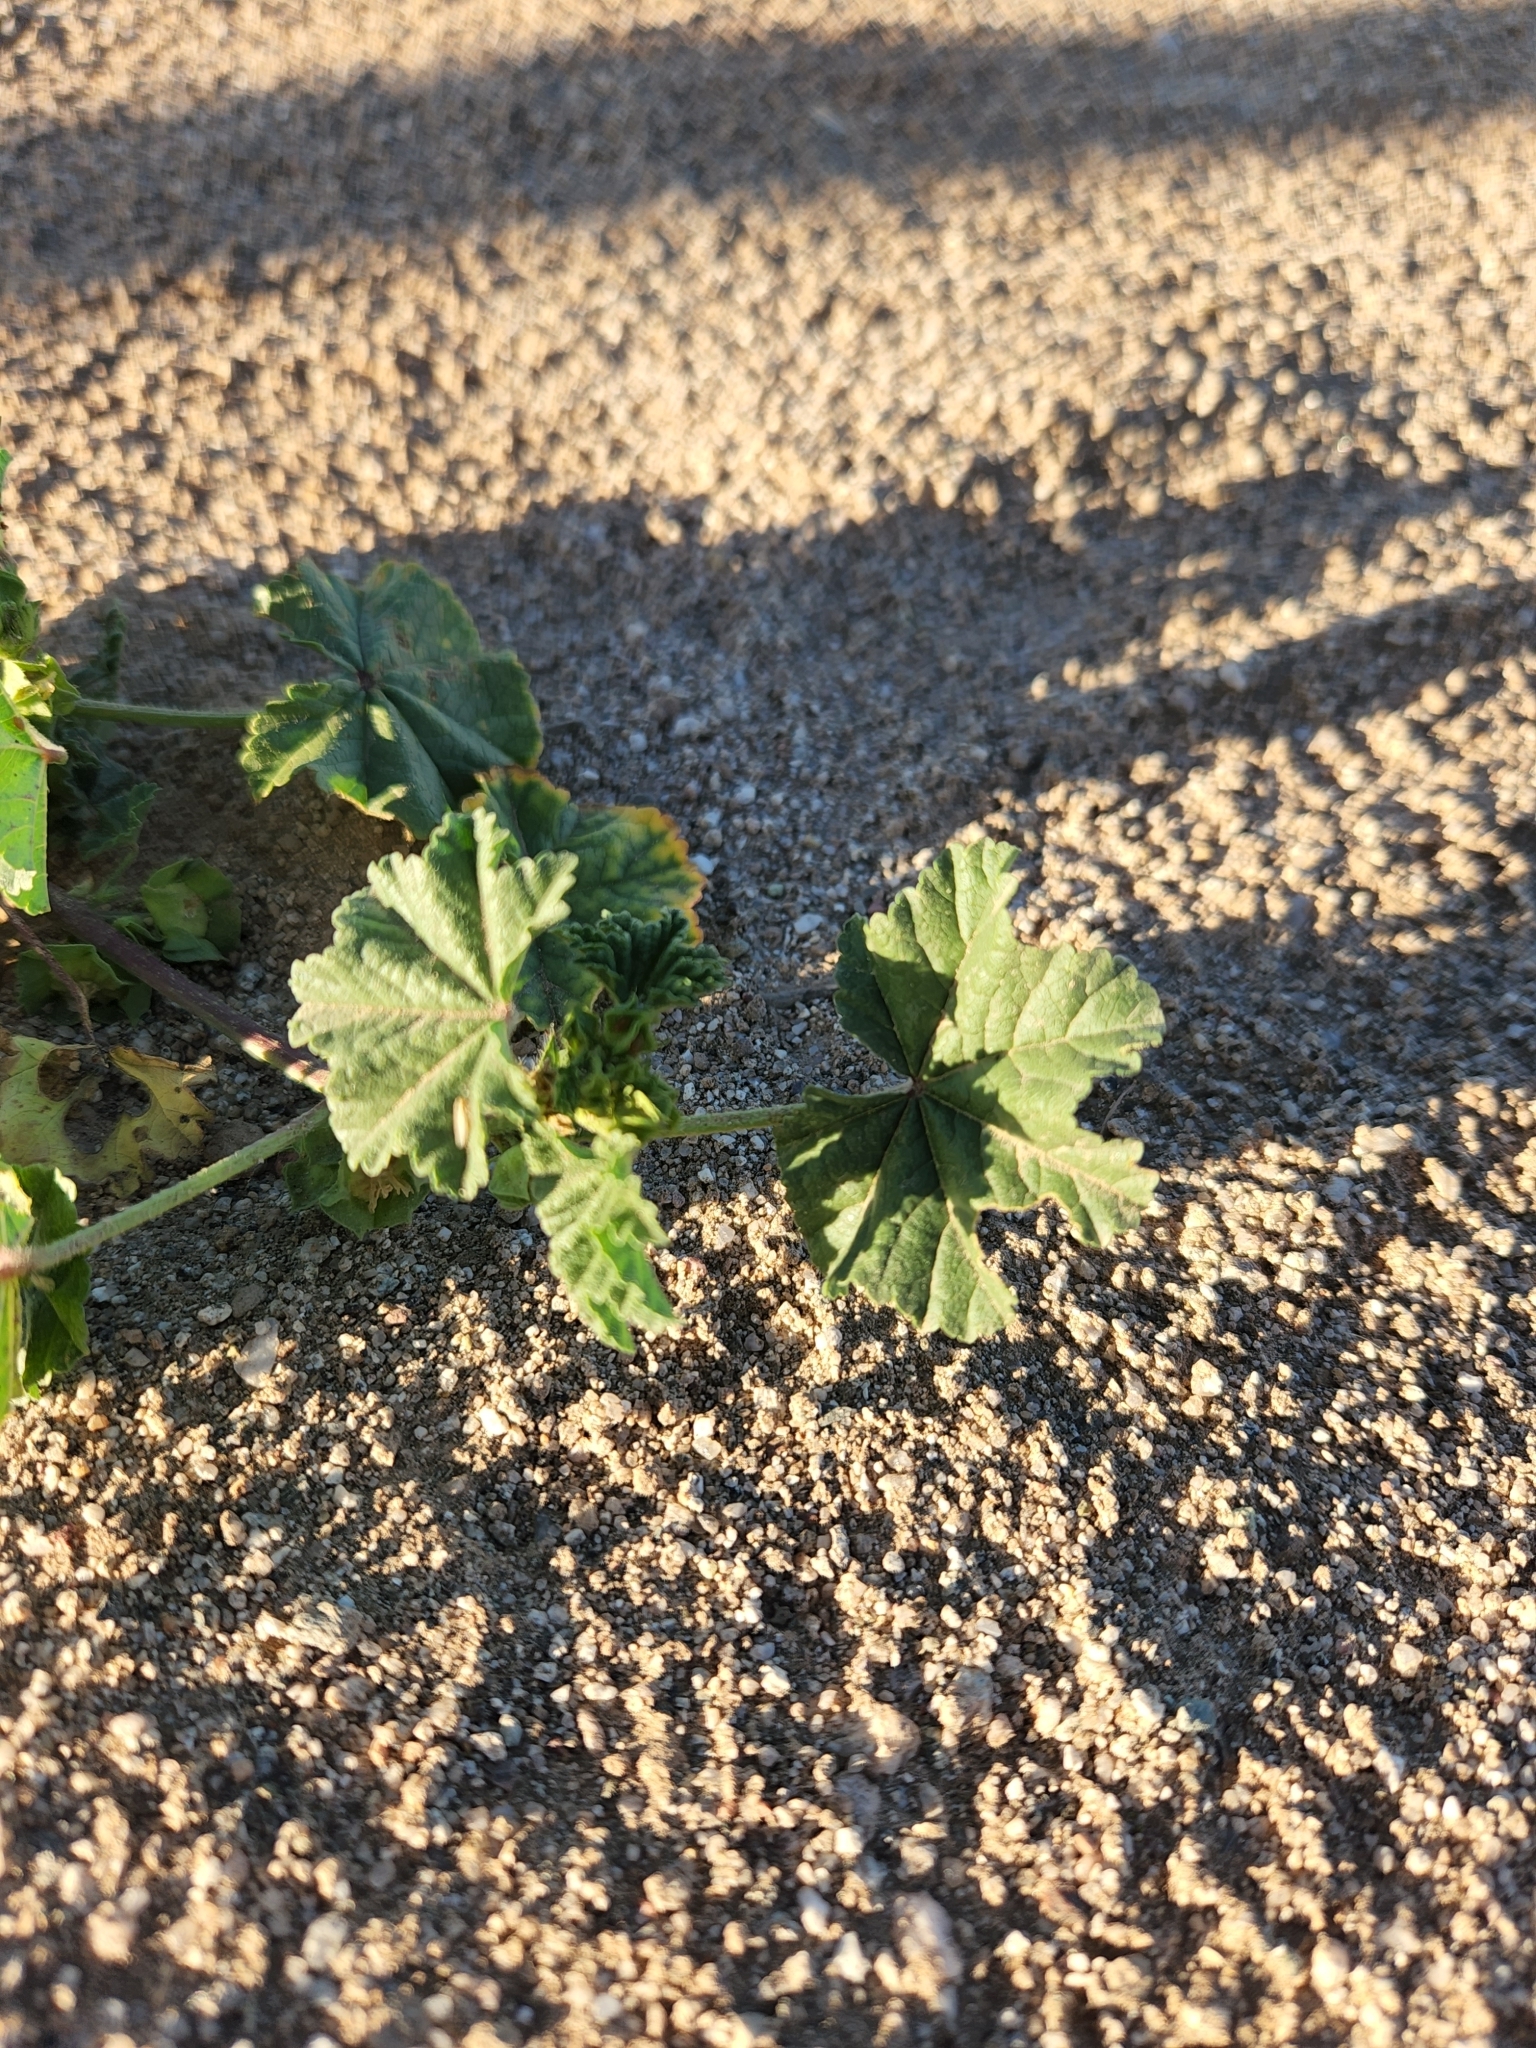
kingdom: Plantae
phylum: Tracheophyta
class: Magnoliopsida
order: Malvales
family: Malvaceae
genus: Malva
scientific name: Malva parviflora
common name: Least mallow
